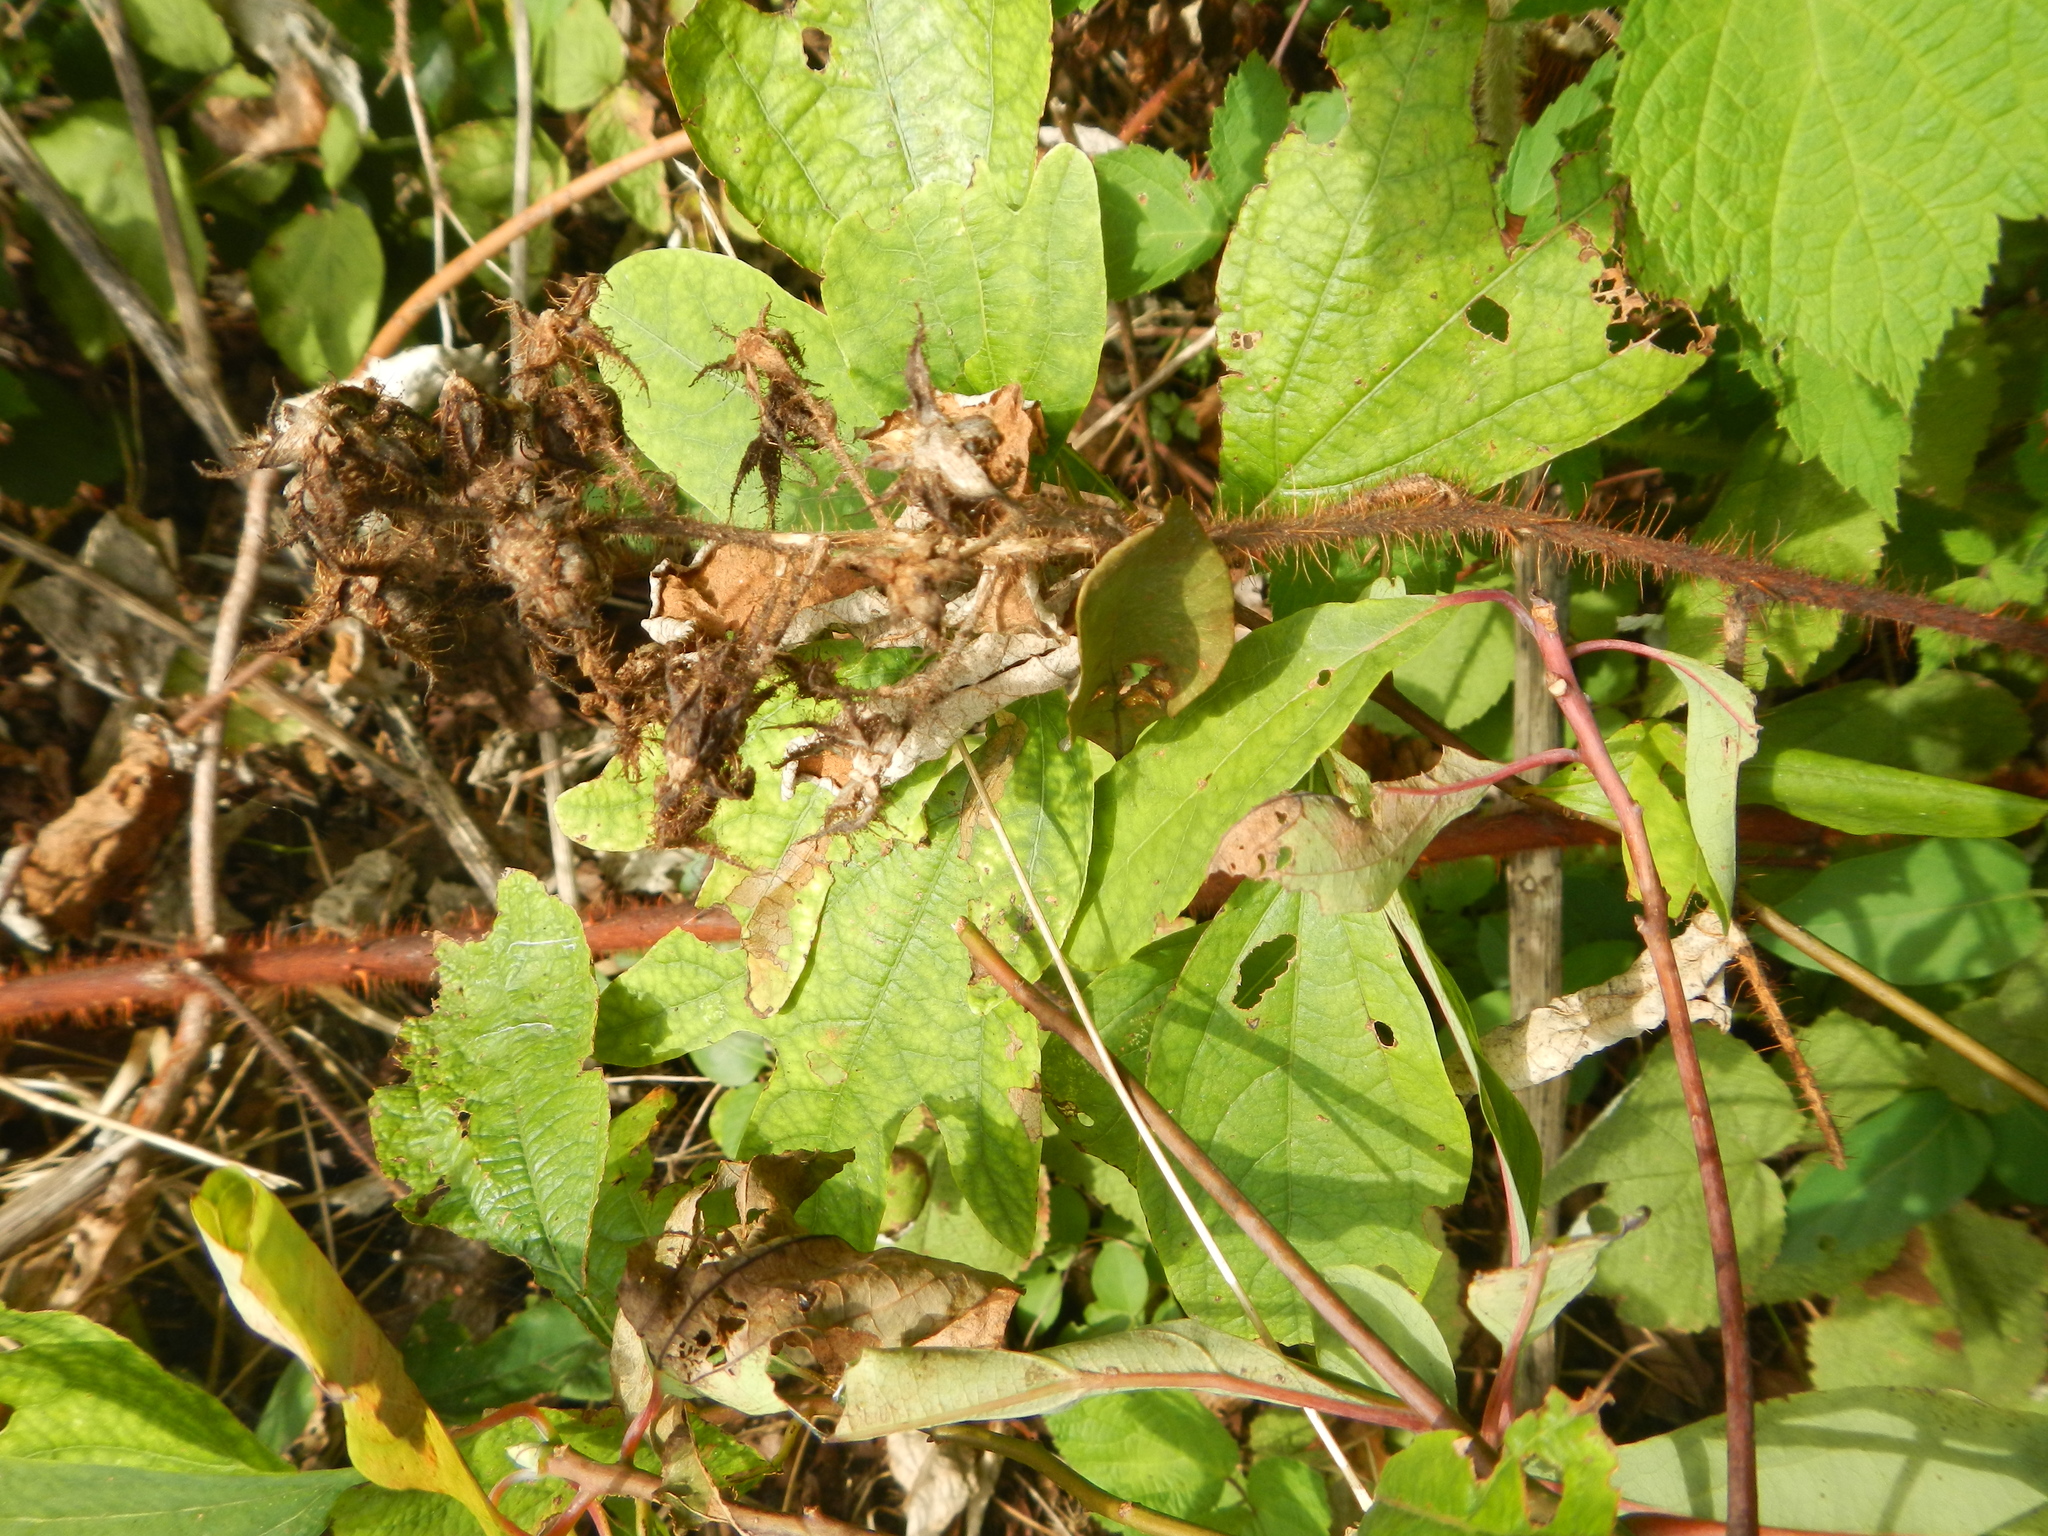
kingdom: Plantae
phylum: Tracheophyta
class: Magnoliopsida
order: Rosales
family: Rosaceae
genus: Rubus
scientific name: Rubus phoenicolasius
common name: Japanese wineberry
